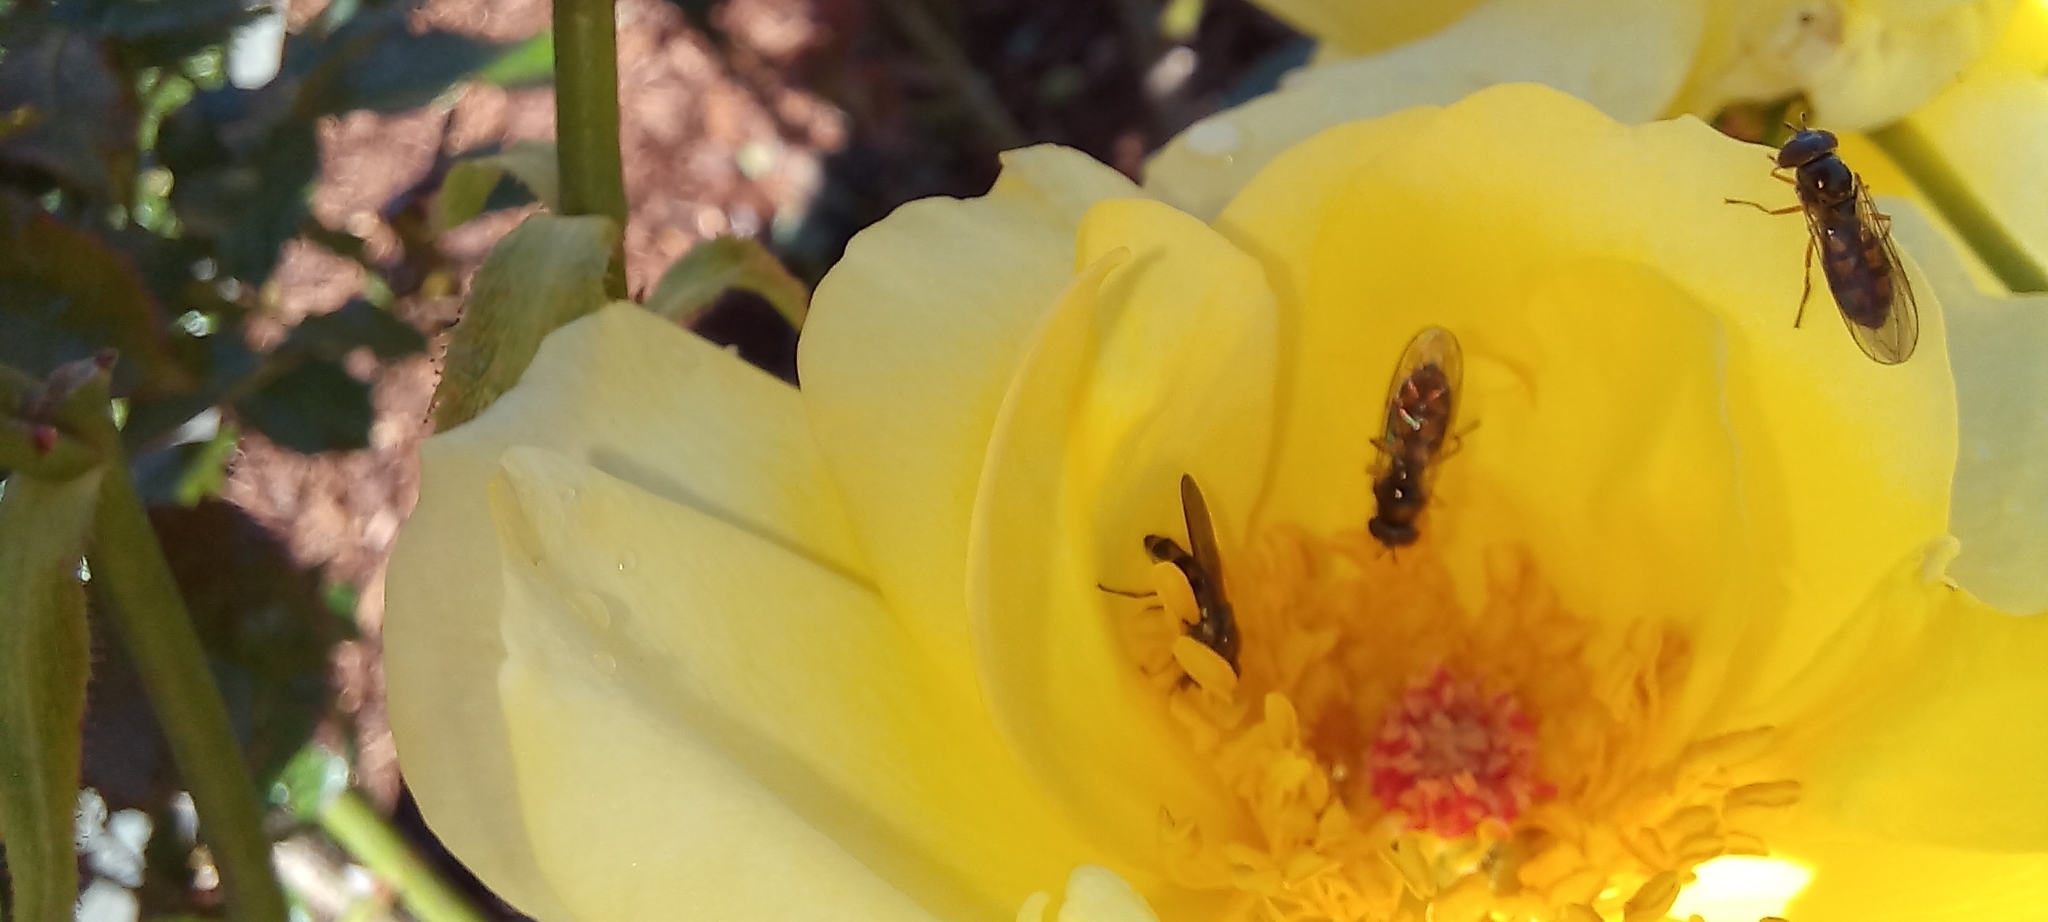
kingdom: Animalia
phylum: Arthropoda
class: Insecta
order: Diptera
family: Syrphidae
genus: Melanostoma
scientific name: Melanostoma fasciatum
